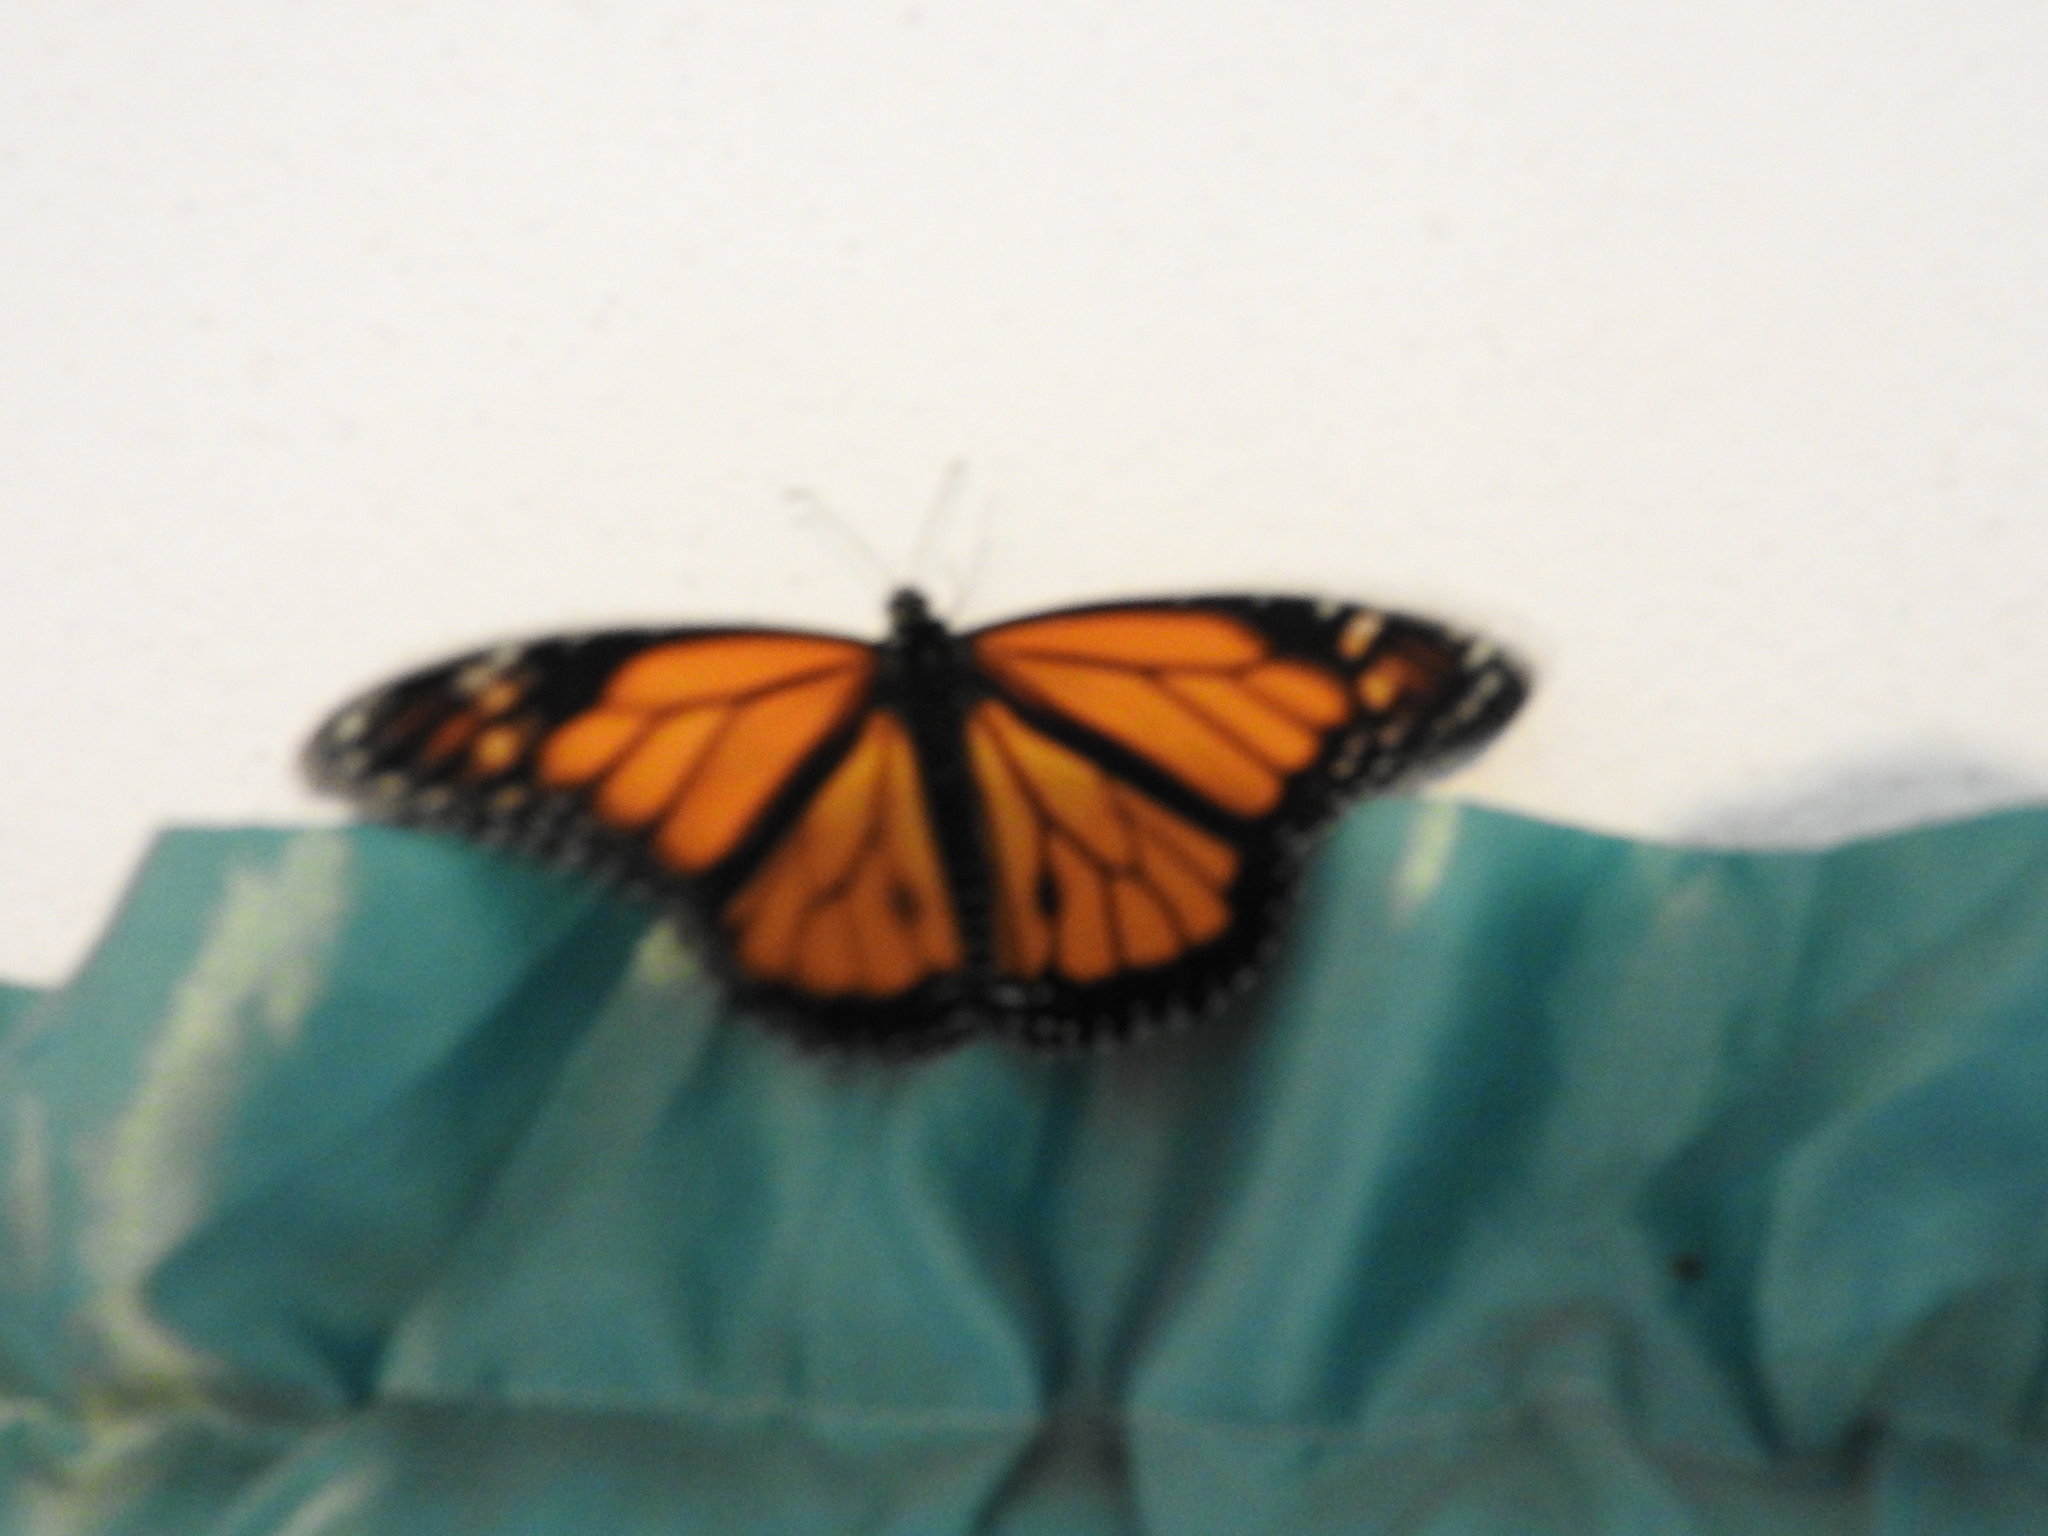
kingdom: Animalia
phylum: Arthropoda
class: Insecta
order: Lepidoptera
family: Nymphalidae
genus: Danaus
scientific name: Danaus plexippus
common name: Monarch
